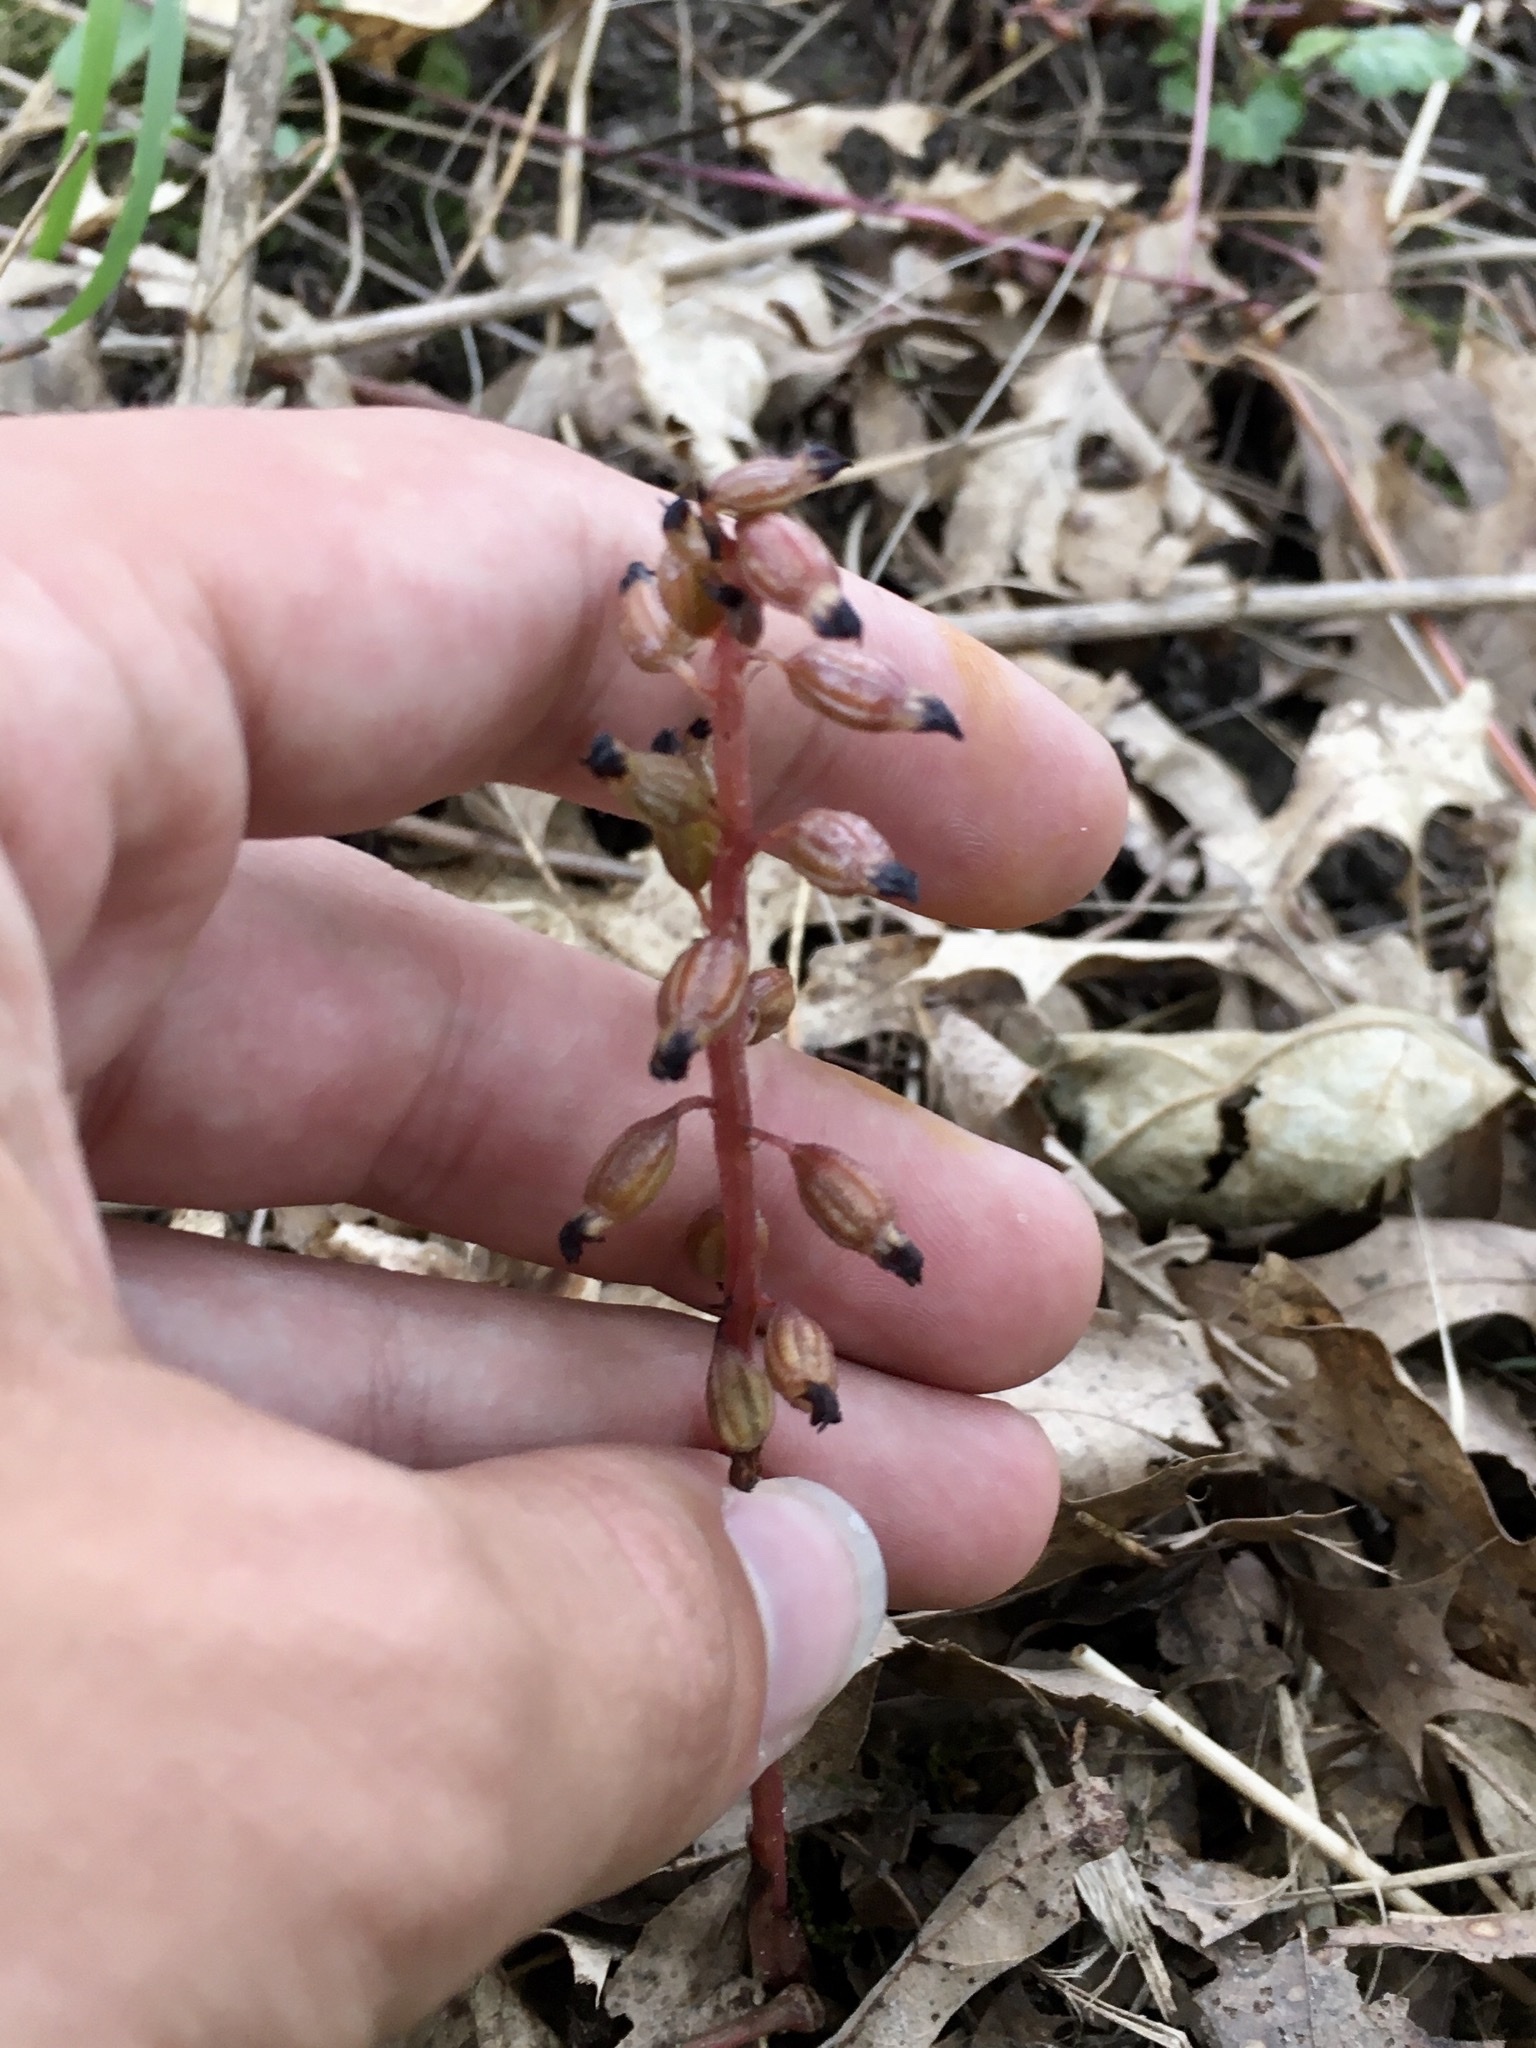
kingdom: Plantae
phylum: Tracheophyta
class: Liliopsida
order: Asparagales
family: Orchidaceae
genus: Corallorhiza
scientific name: Corallorhiza odontorhiza
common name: Autumn coralroot
